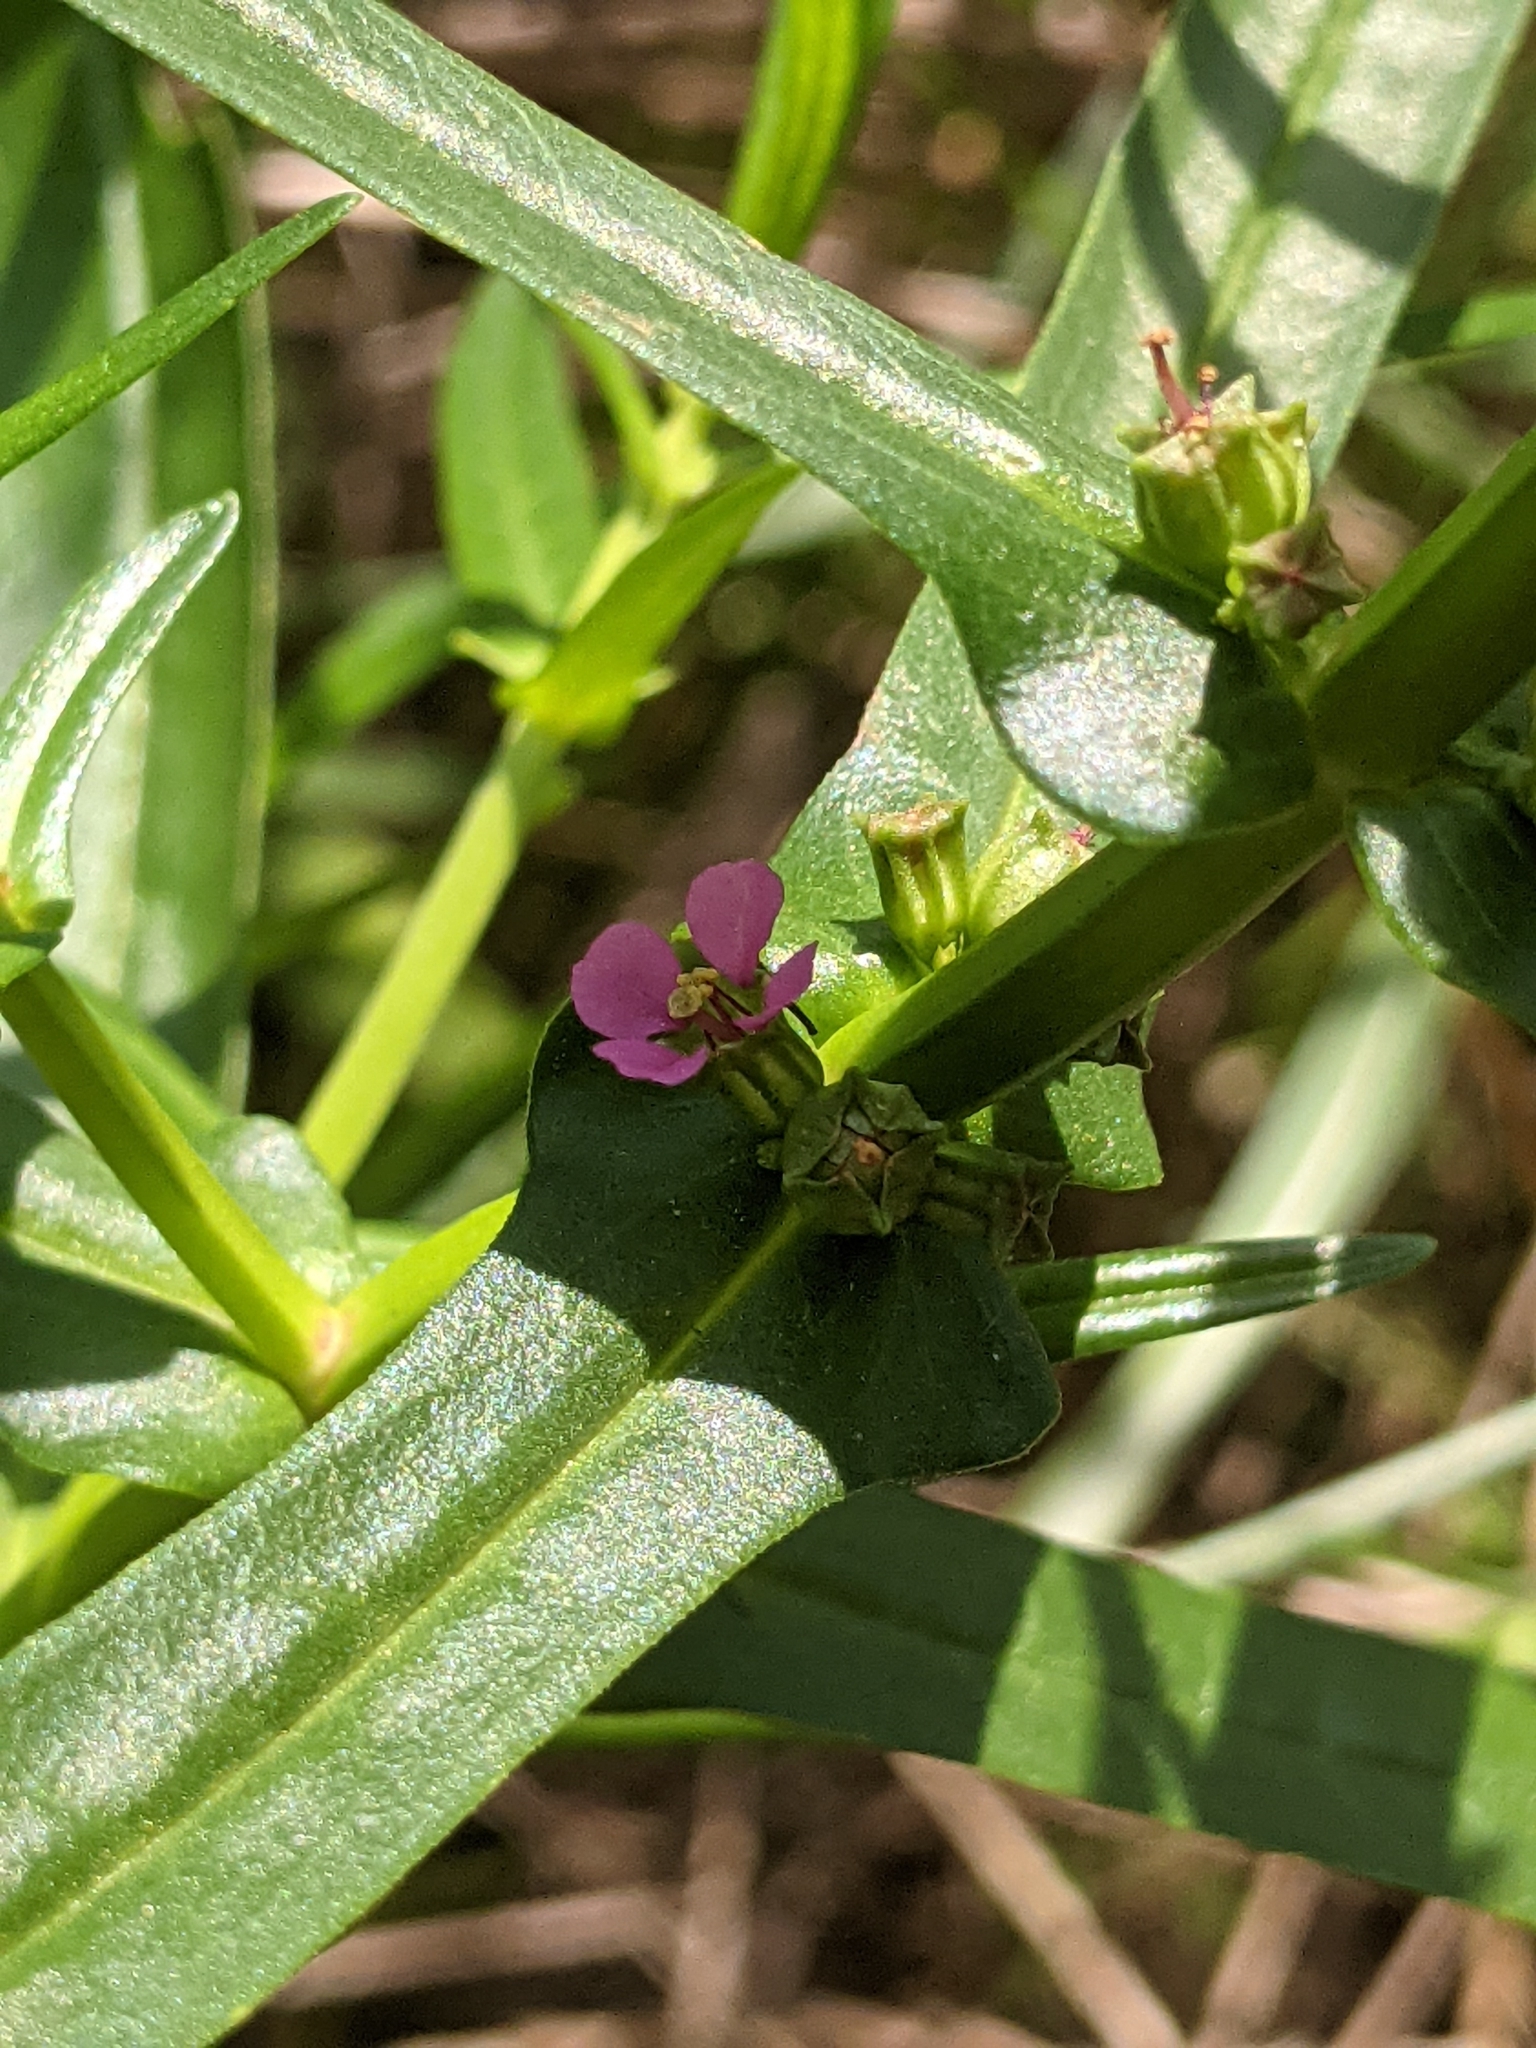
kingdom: Plantae
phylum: Tracheophyta
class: Magnoliopsida
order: Myrtales
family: Lythraceae
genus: Ammannia
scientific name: Ammannia coccinea
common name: Valley redstem
